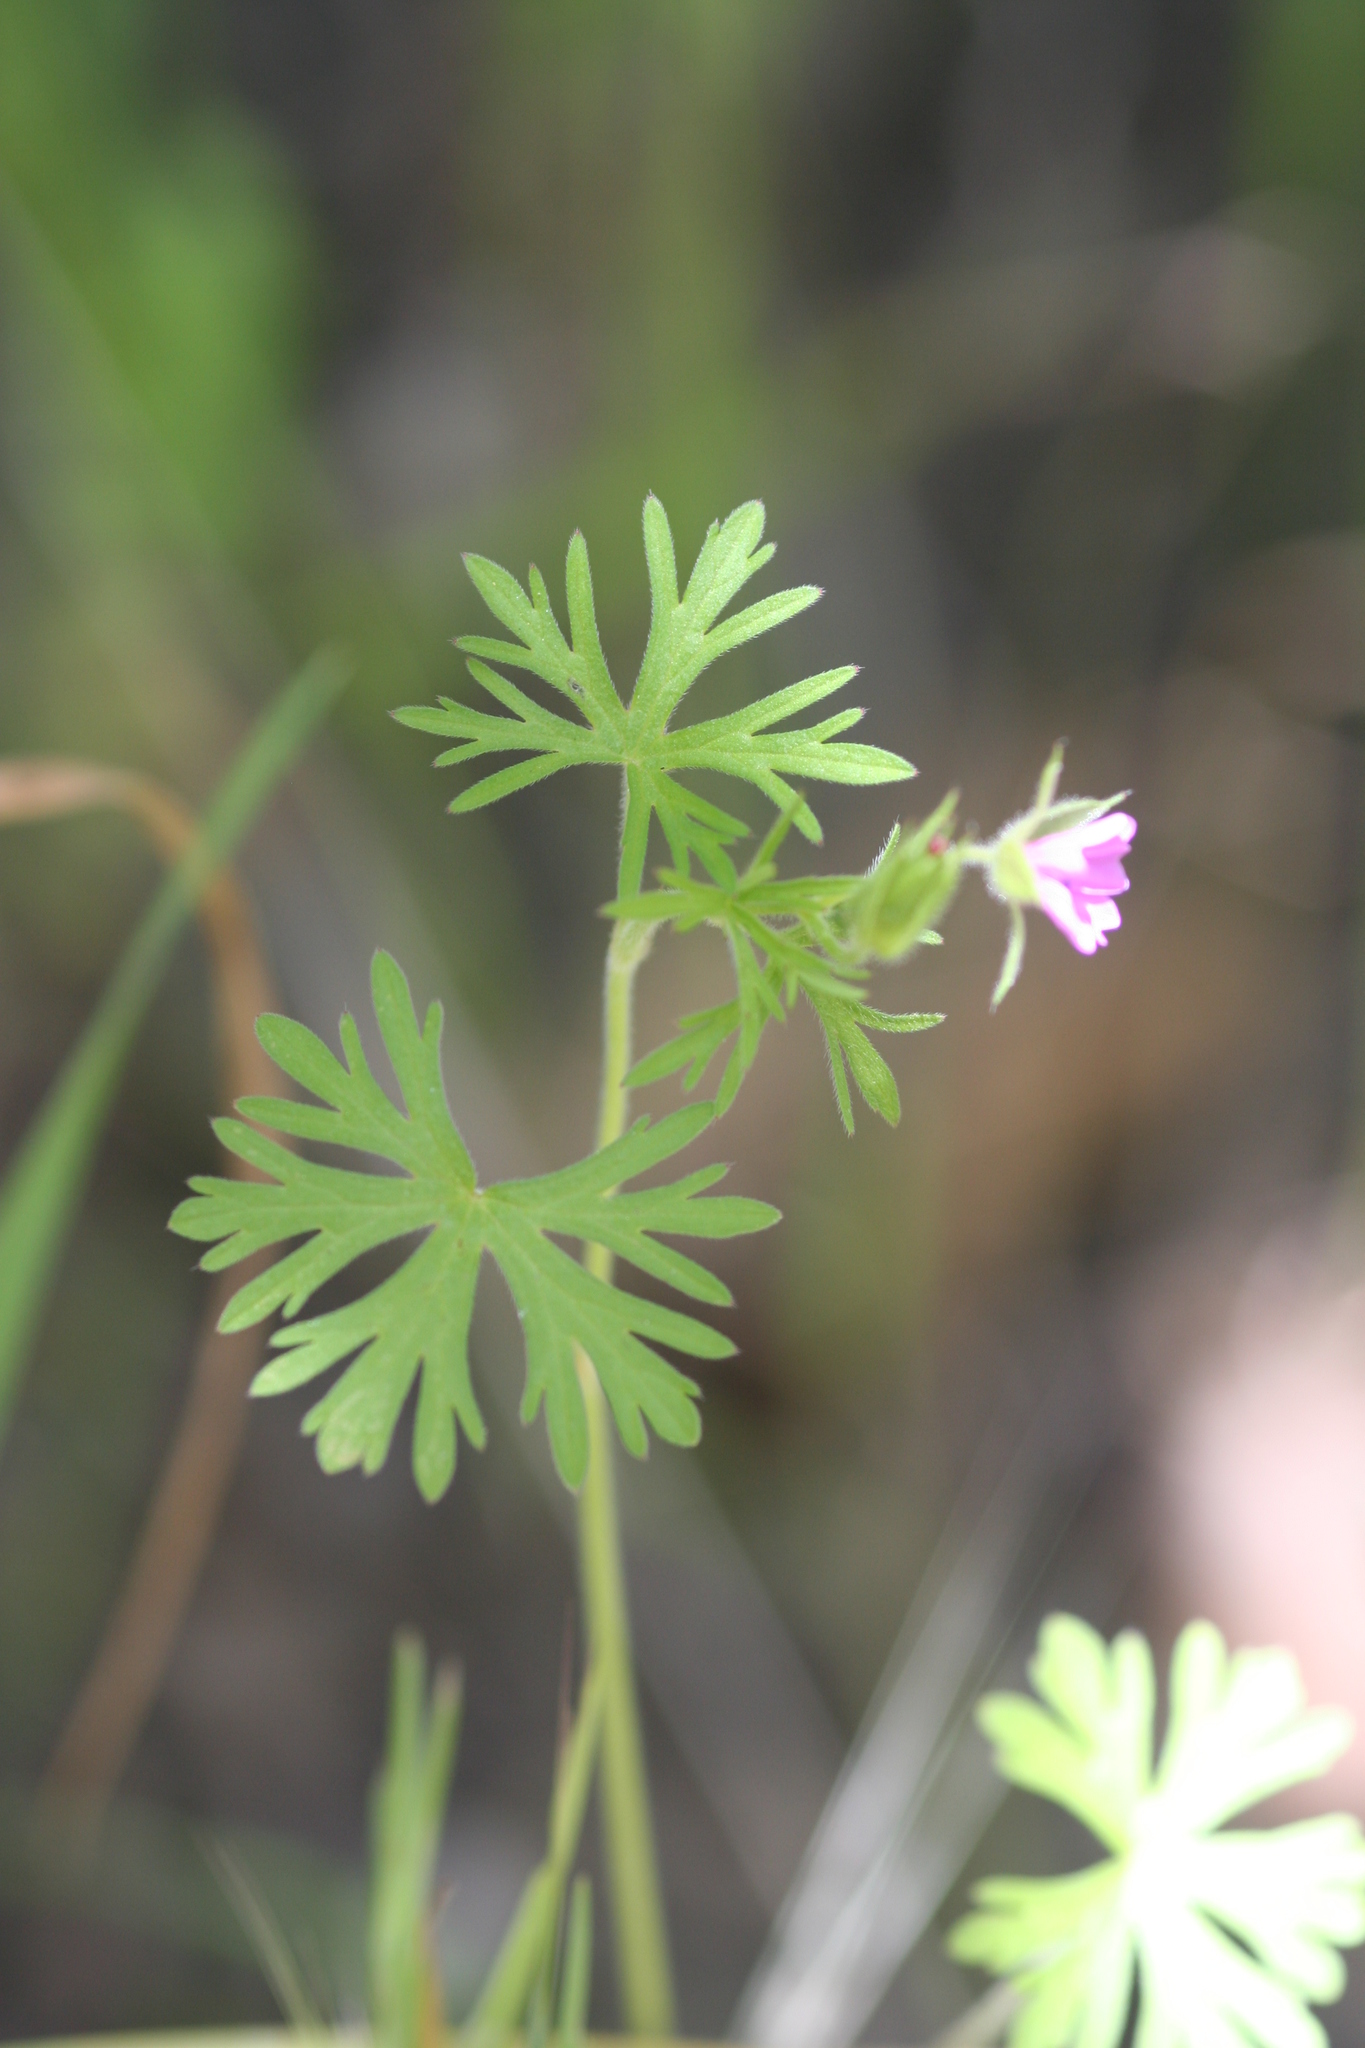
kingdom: Plantae
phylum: Tracheophyta
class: Magnoliopsida
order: Geraniales
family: Geraniaceae
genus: Geranium
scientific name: Geranium dissectum
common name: Cut-leaved crane's-bill
